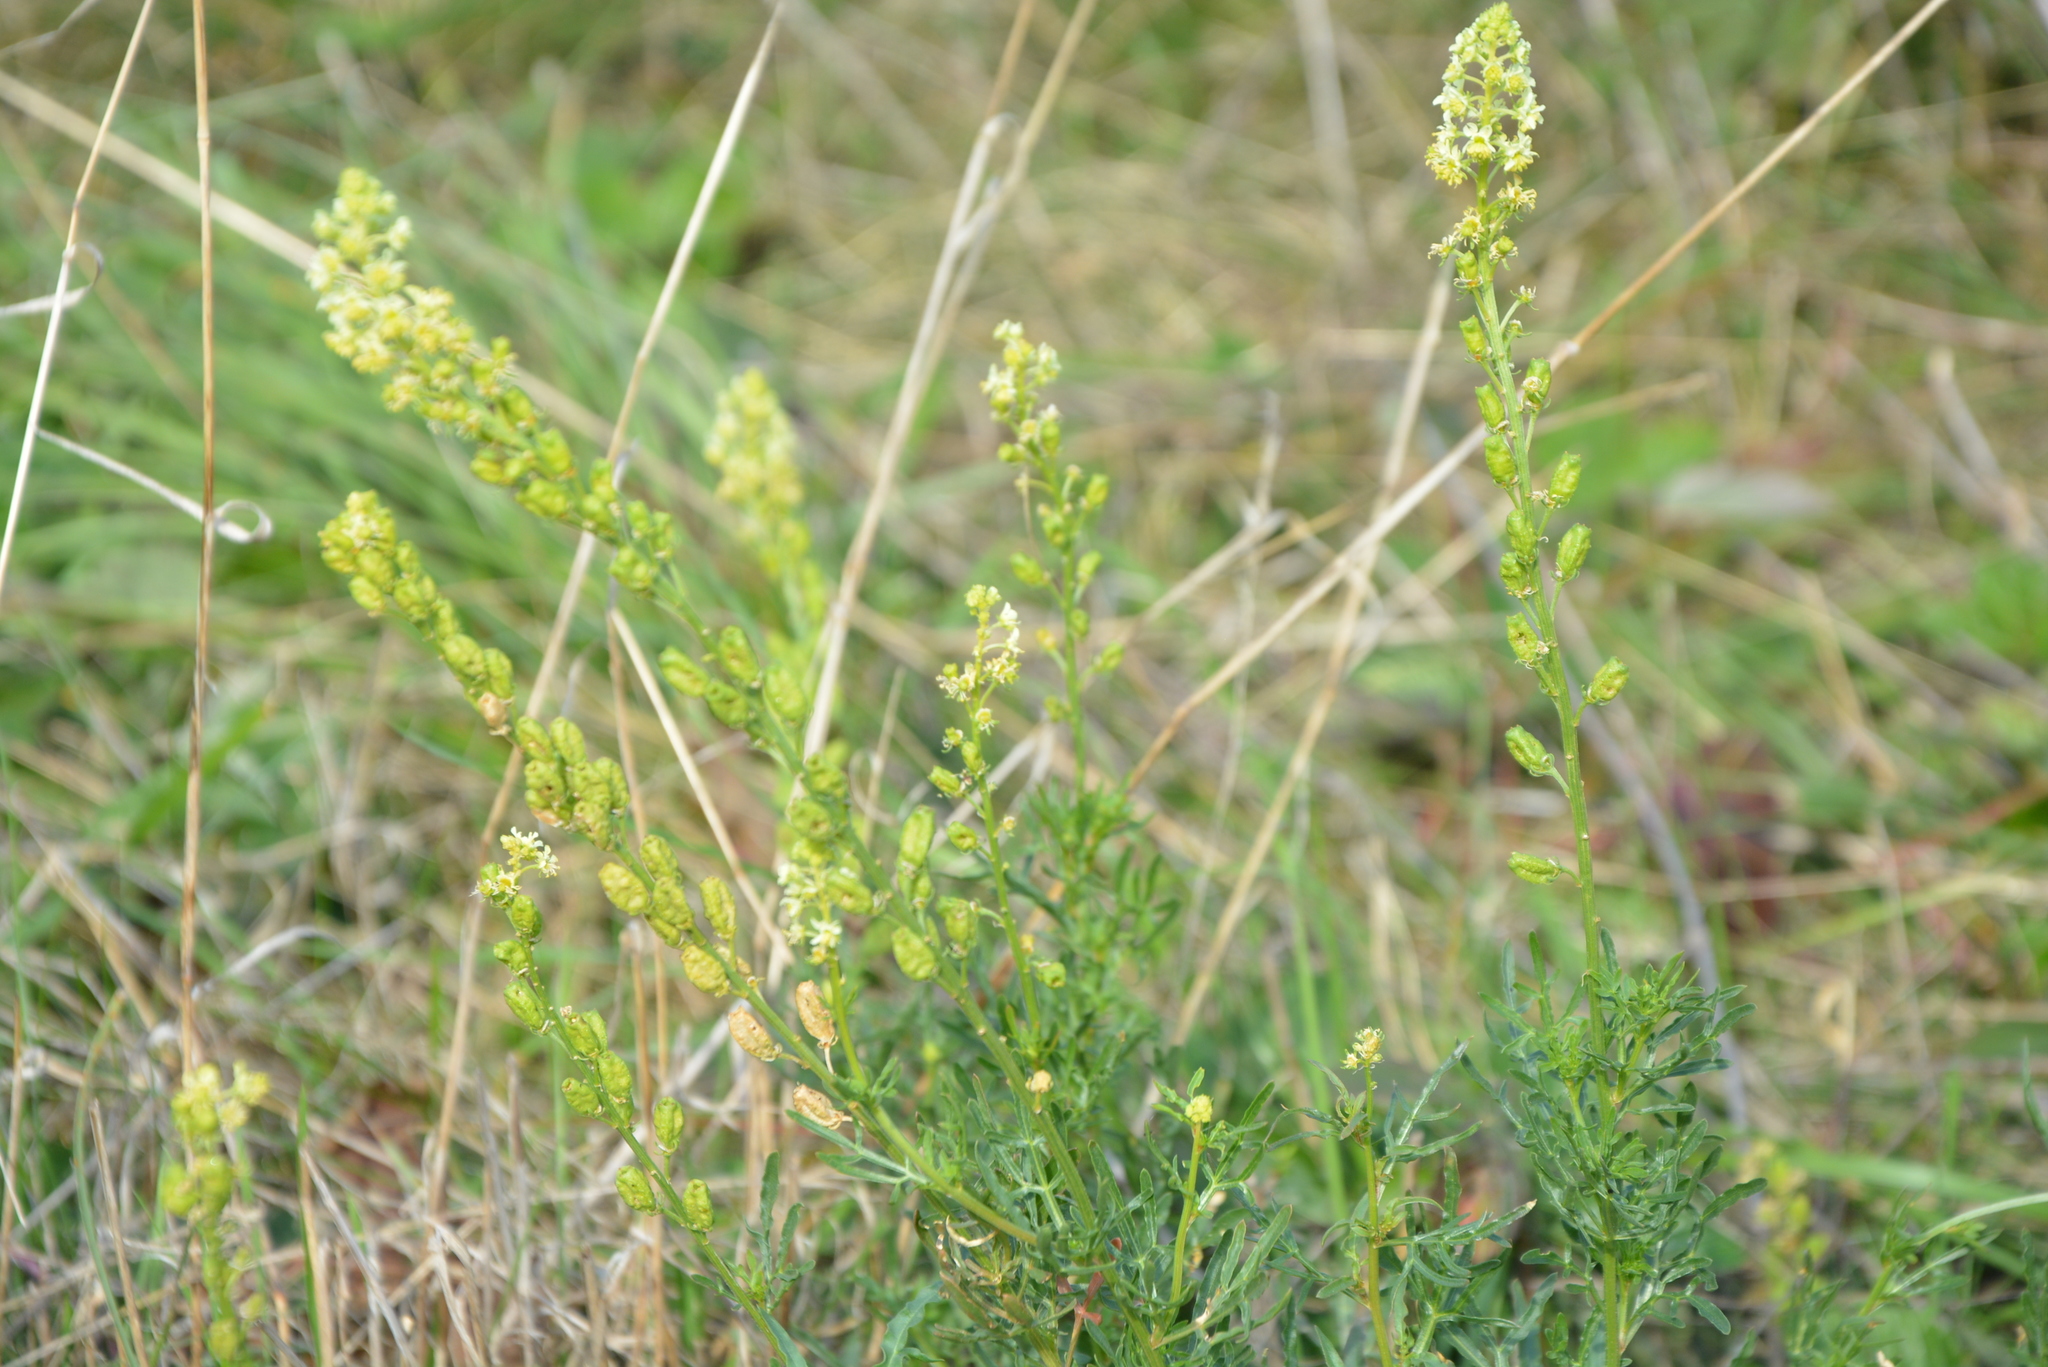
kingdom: Plantae
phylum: Tracheophyta
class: Magnoliopsida
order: Brassicales
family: Resedaceae
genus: Reseda
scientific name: Reseda lutea
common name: Wild mignonette
